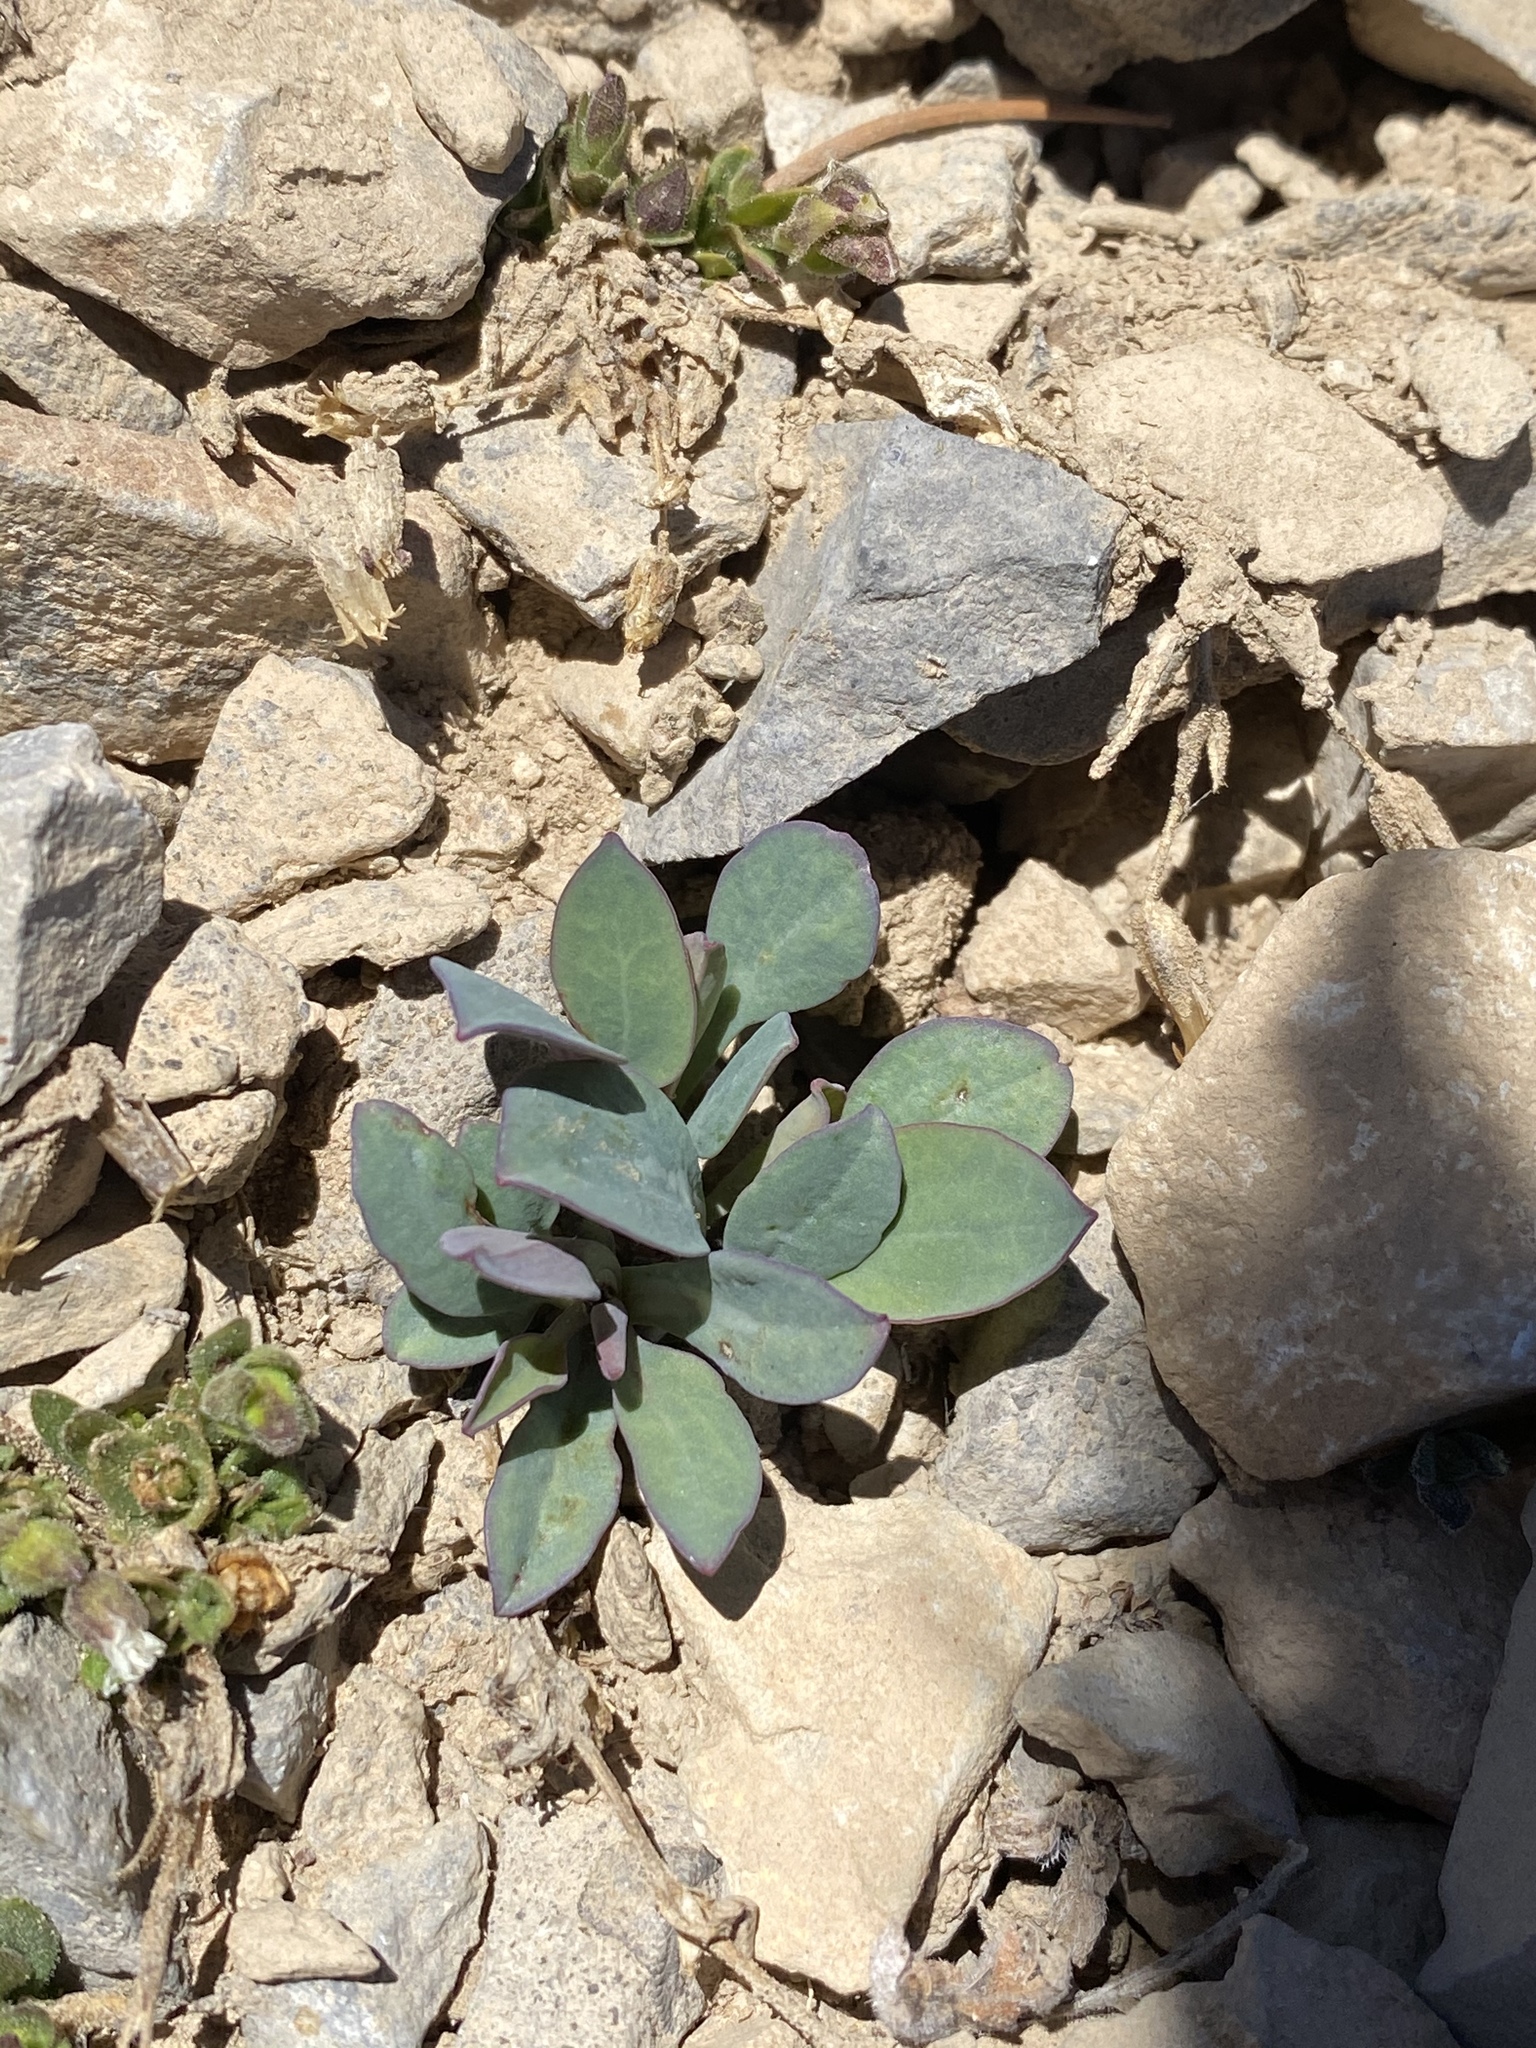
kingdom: Plantae
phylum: Tracheophyta
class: Magnoliopsida
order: Asterales
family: Asteraceae
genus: Askellia
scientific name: Askellia pygmaea
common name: Dwarf alpine hawksbeard
